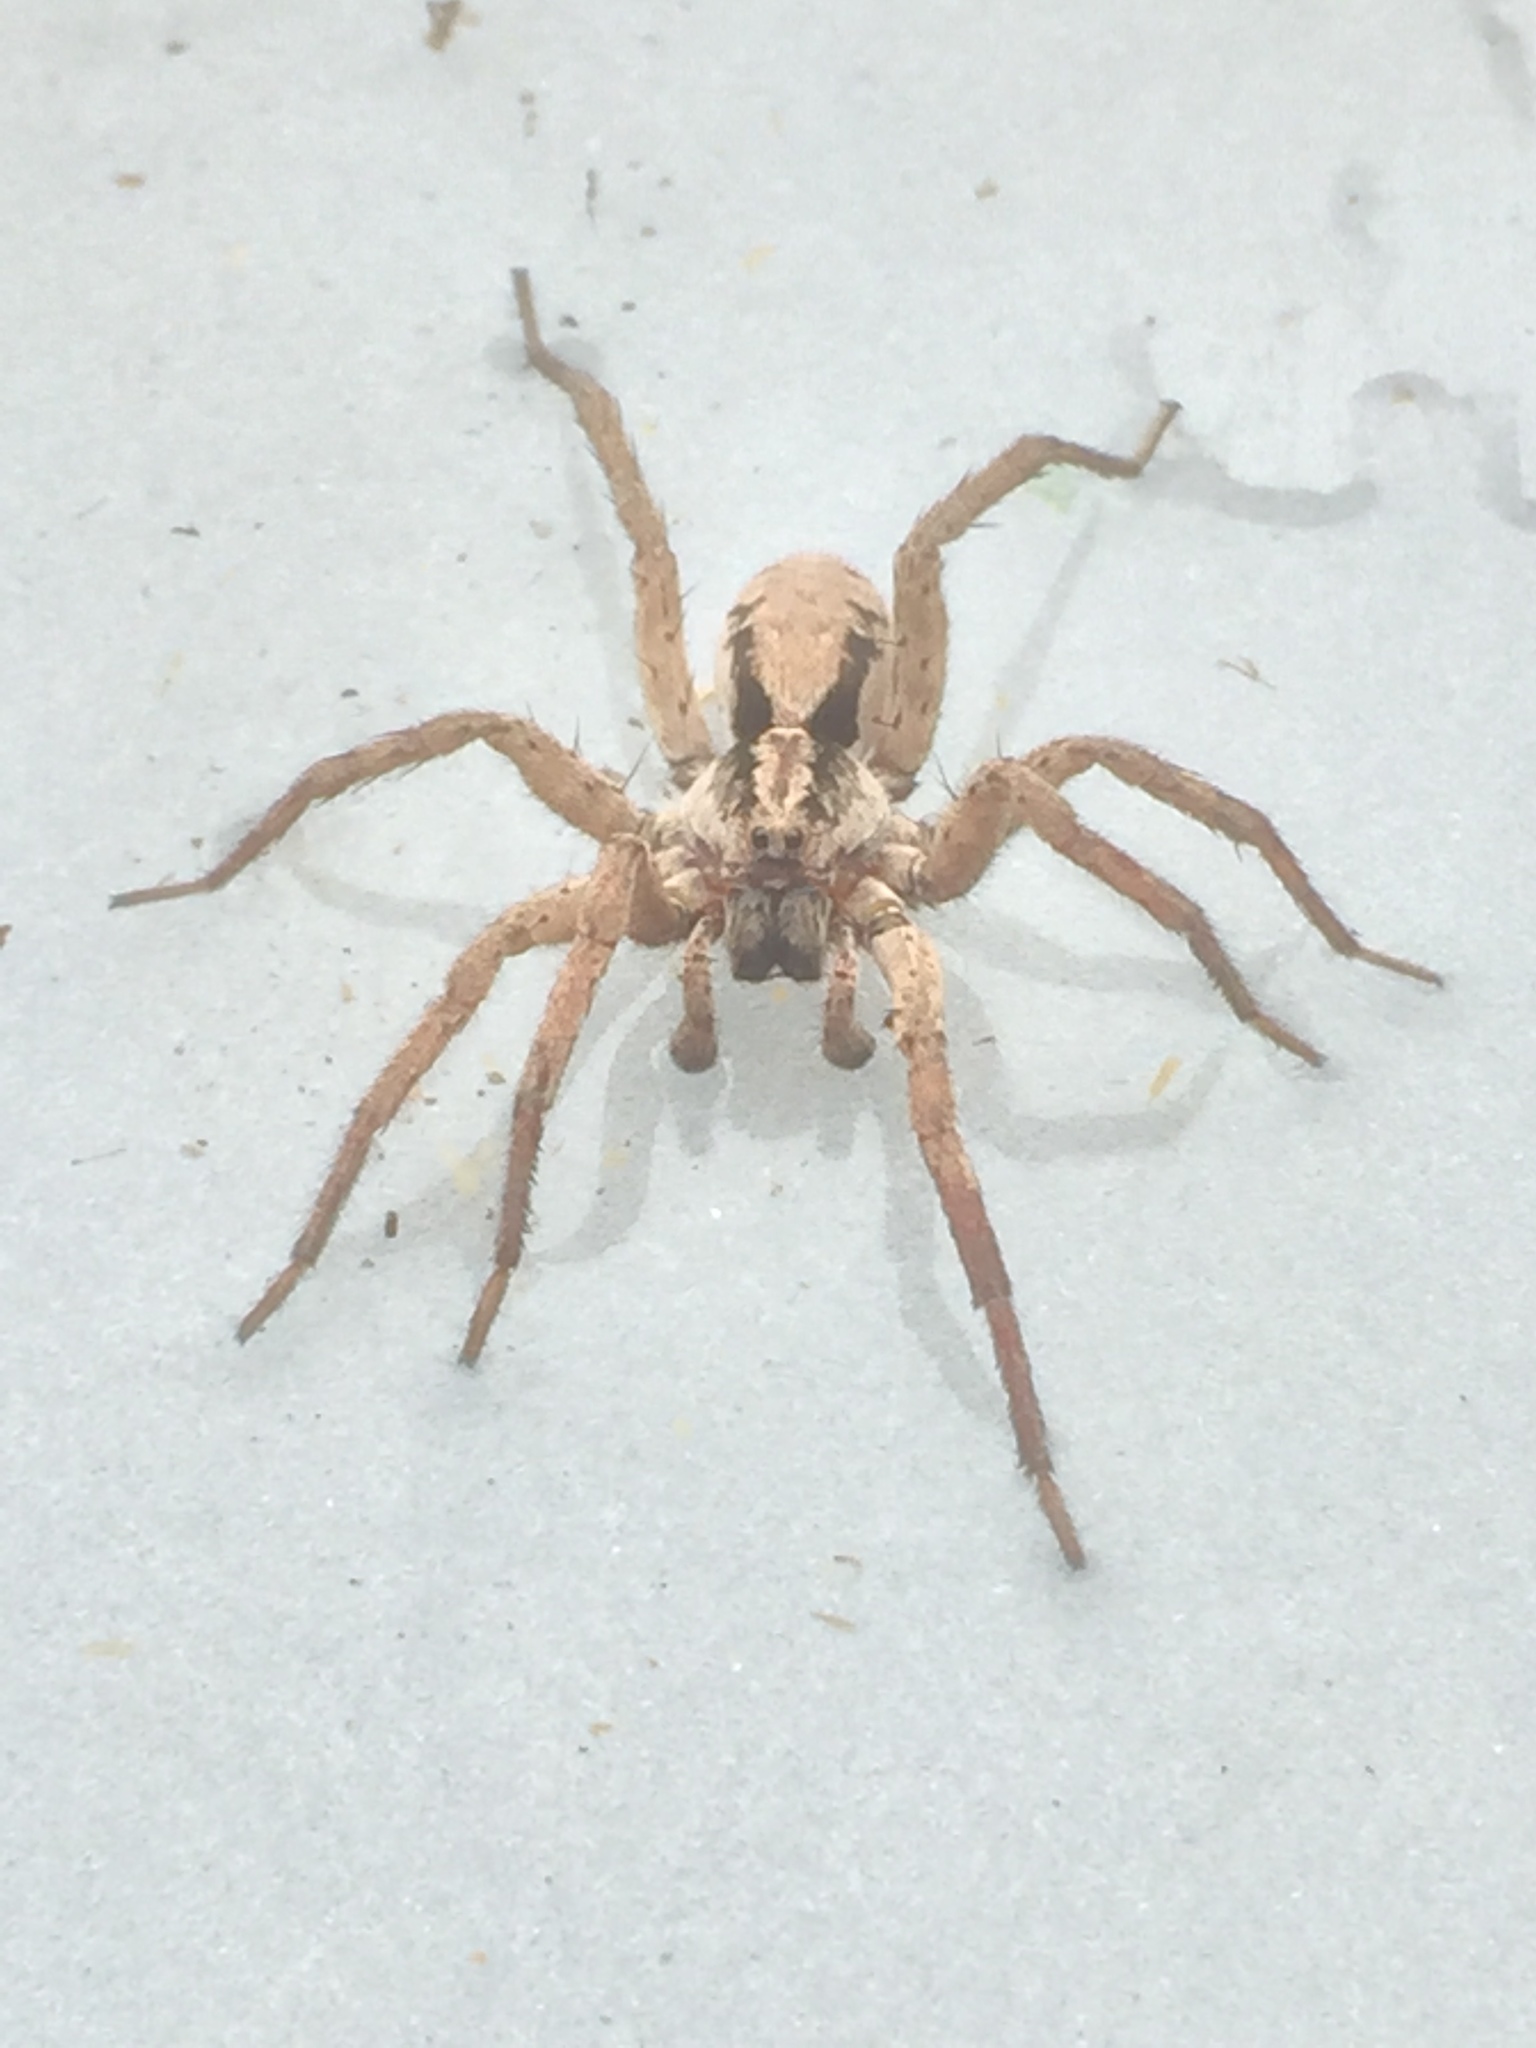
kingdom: Animalia
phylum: Arthropoda
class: Arachnida
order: Araneae
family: Lycosidae
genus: Gladicosa
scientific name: Gladicosa gulosa
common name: Drumming sword wolf spider
